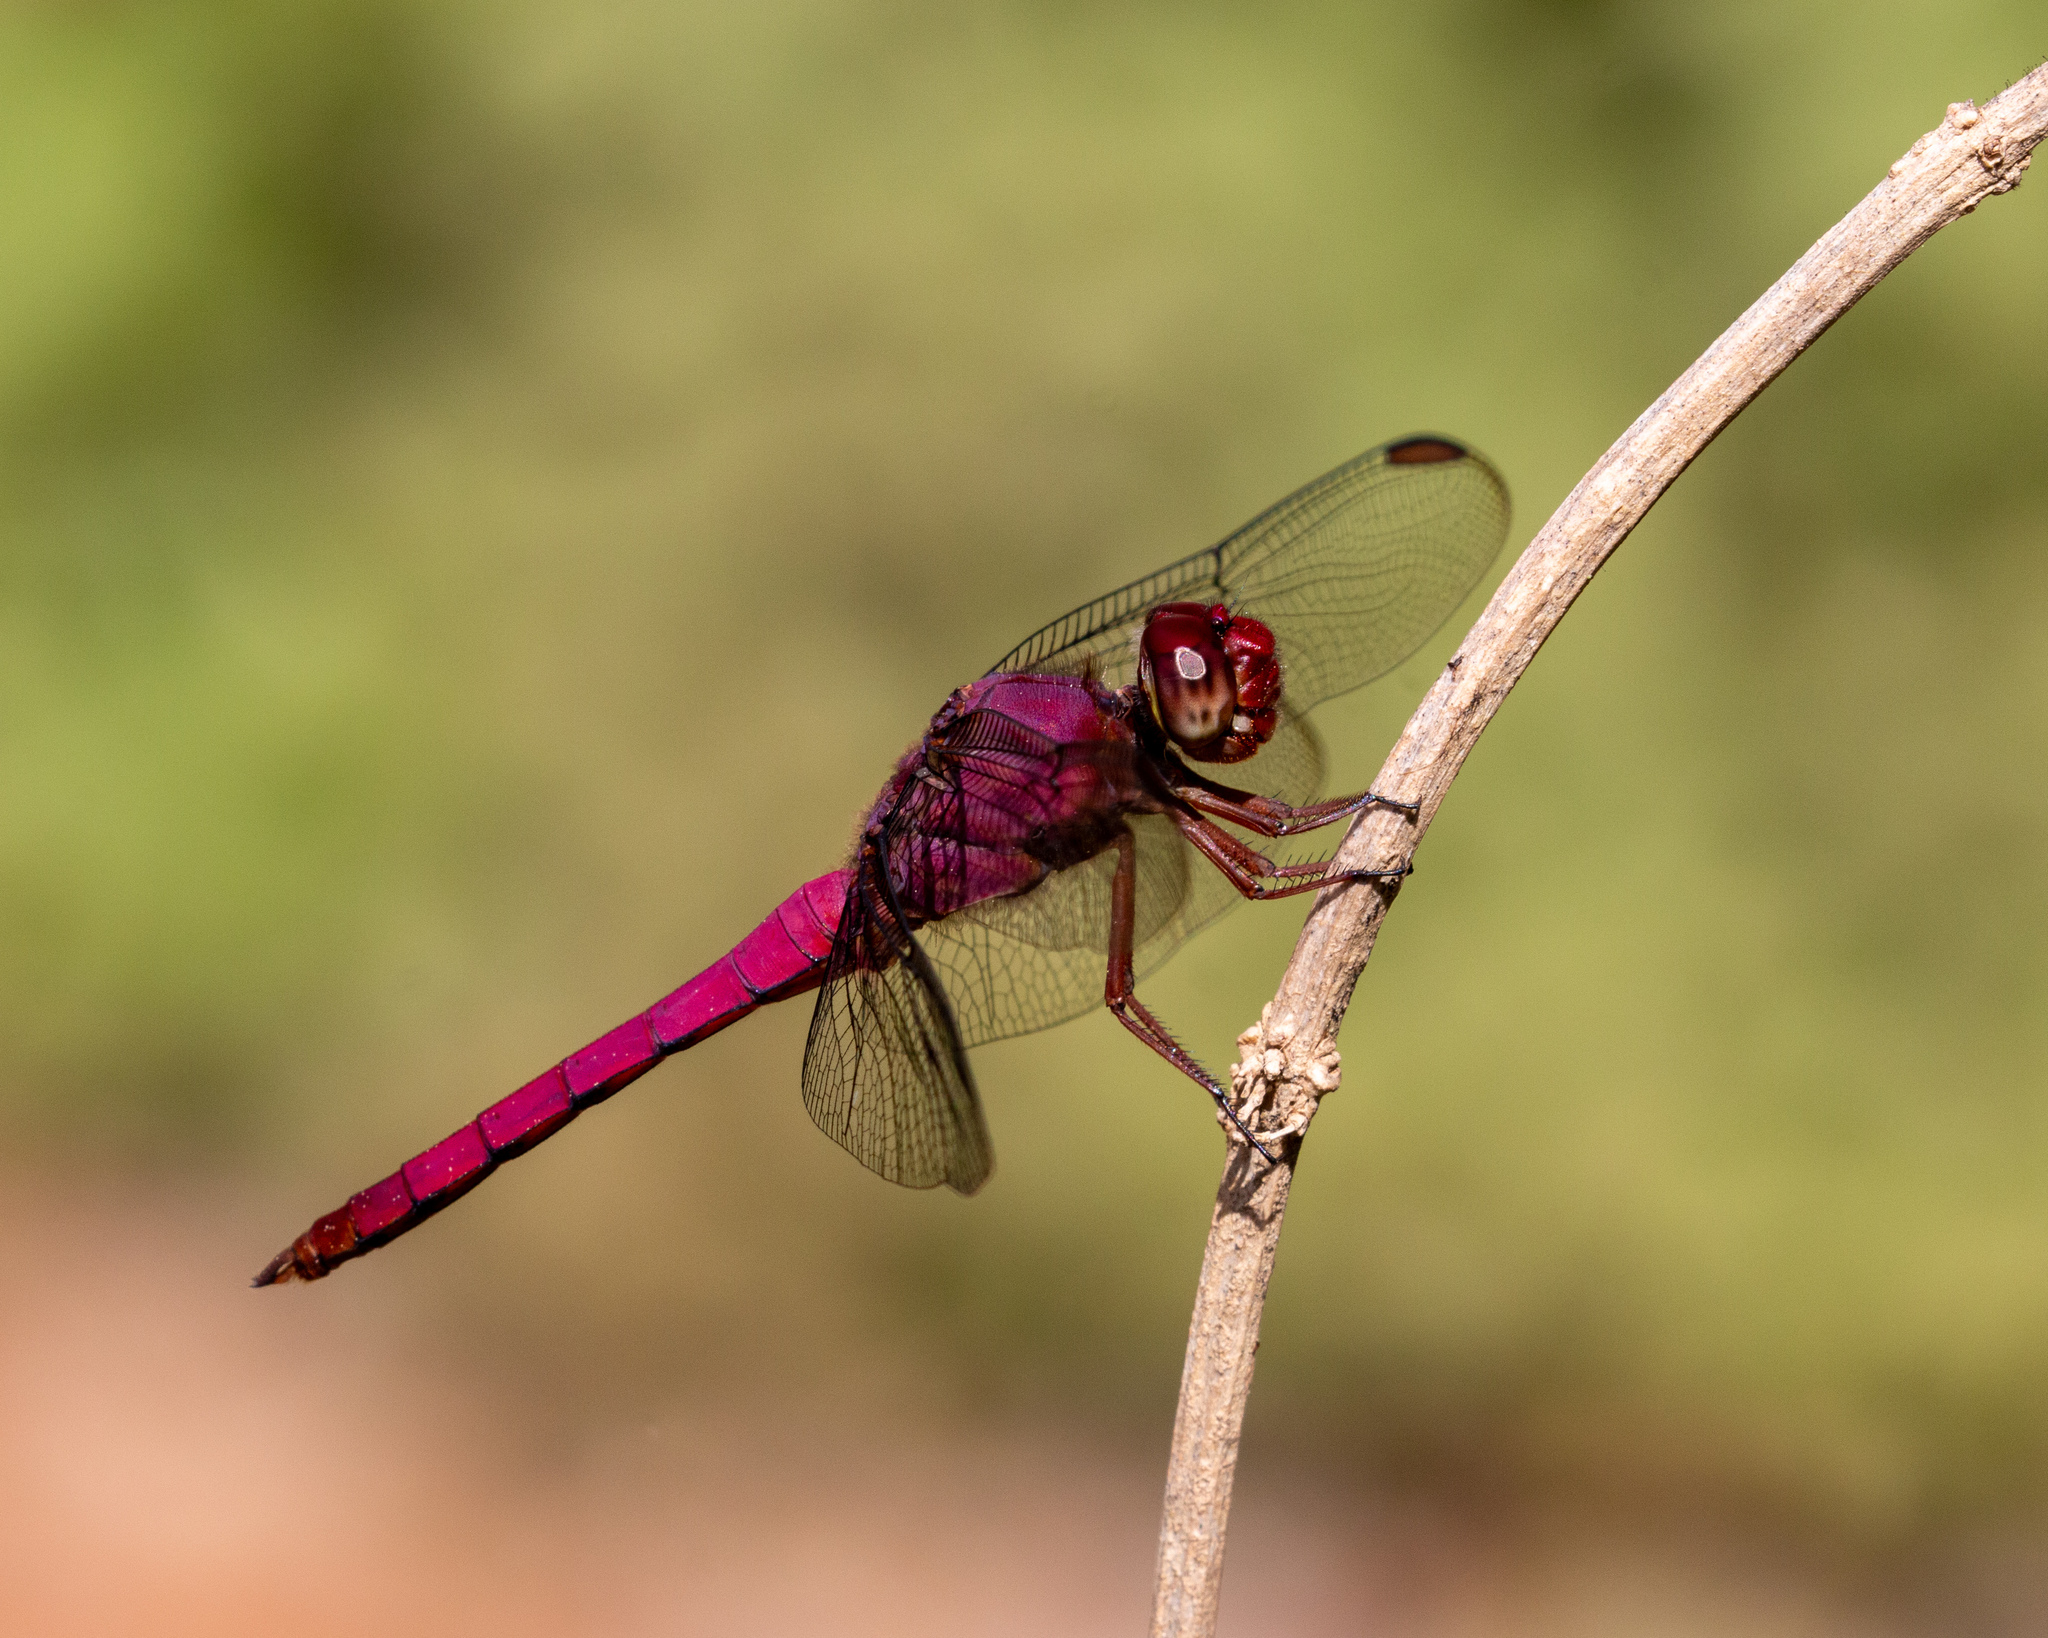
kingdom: Animalia
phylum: Arthropoda
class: Insecta
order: Odonata
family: Libellulidae
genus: Orthemis
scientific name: Orthemis discolor
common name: Carmine skimmer
